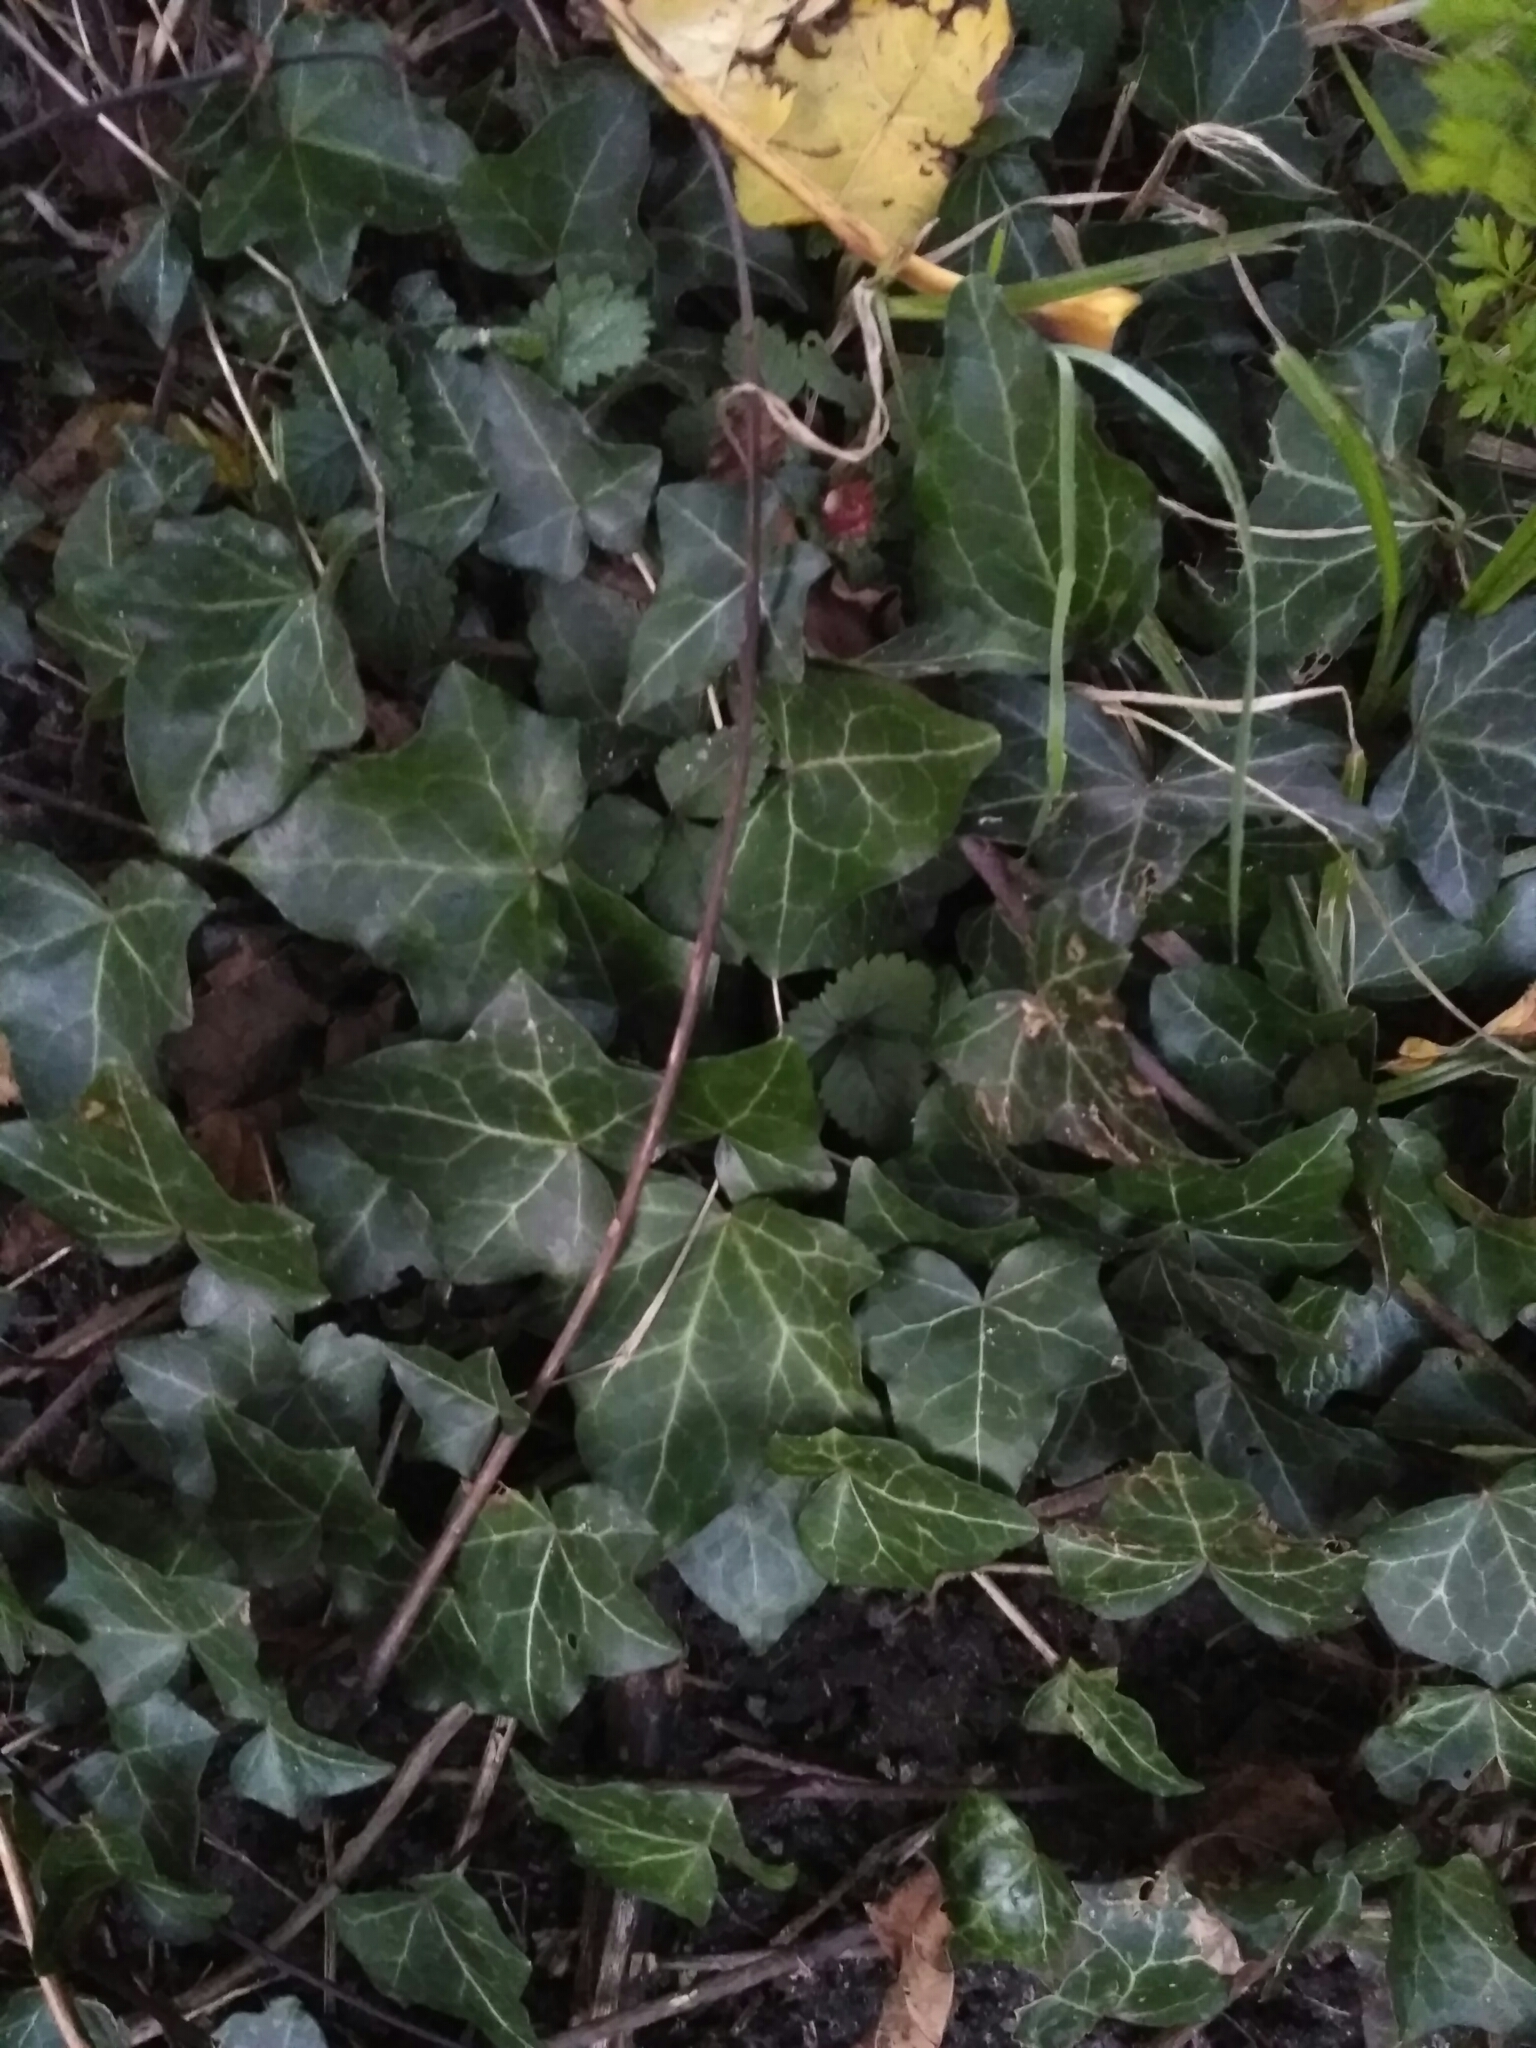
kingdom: Plantae
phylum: Tracheophyta
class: Magnoliopsida
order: Apiales
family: Araliaceae
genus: Hedera
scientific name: Hedera helix
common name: Ivy
